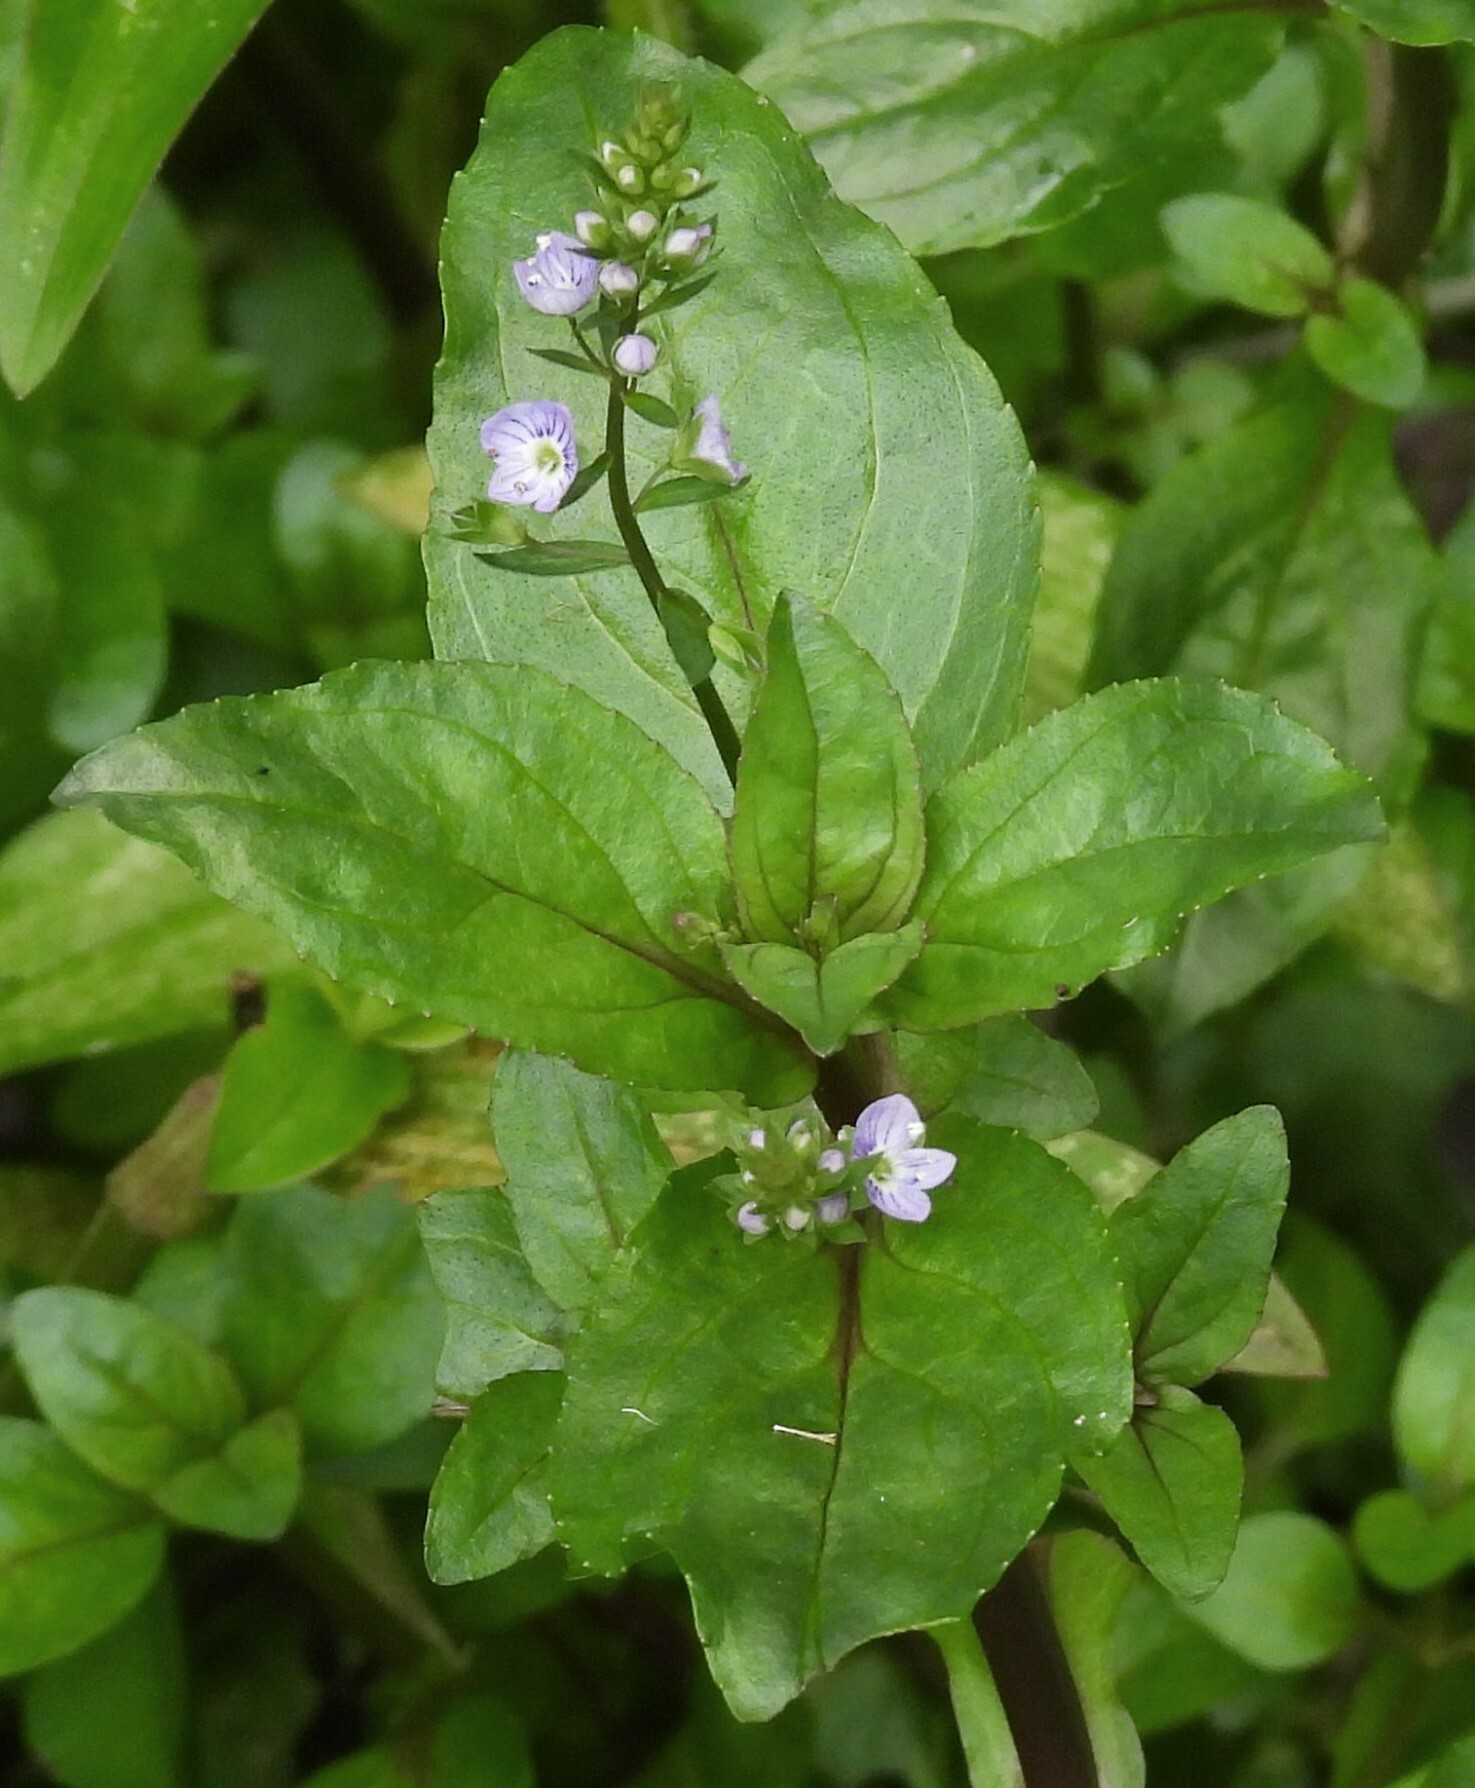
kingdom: Plantae
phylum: Tracheophyta
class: Magnoliopsida
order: Lamiales
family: Plantaginaceae
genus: Veronica
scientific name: Veronica anagallis-aquatica
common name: Water speedwell
